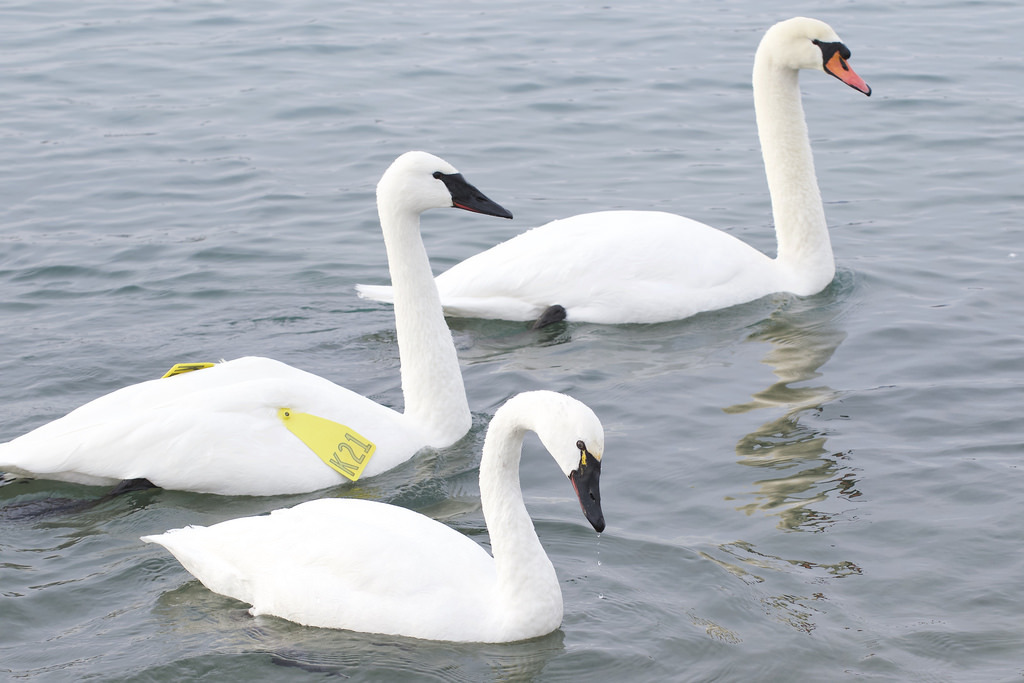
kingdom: Animalia
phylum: Chordata
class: Aves
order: Anseriformes
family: Anatidae
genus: Cygnus
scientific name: Cygnus buccinator
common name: Trumpeter swan
